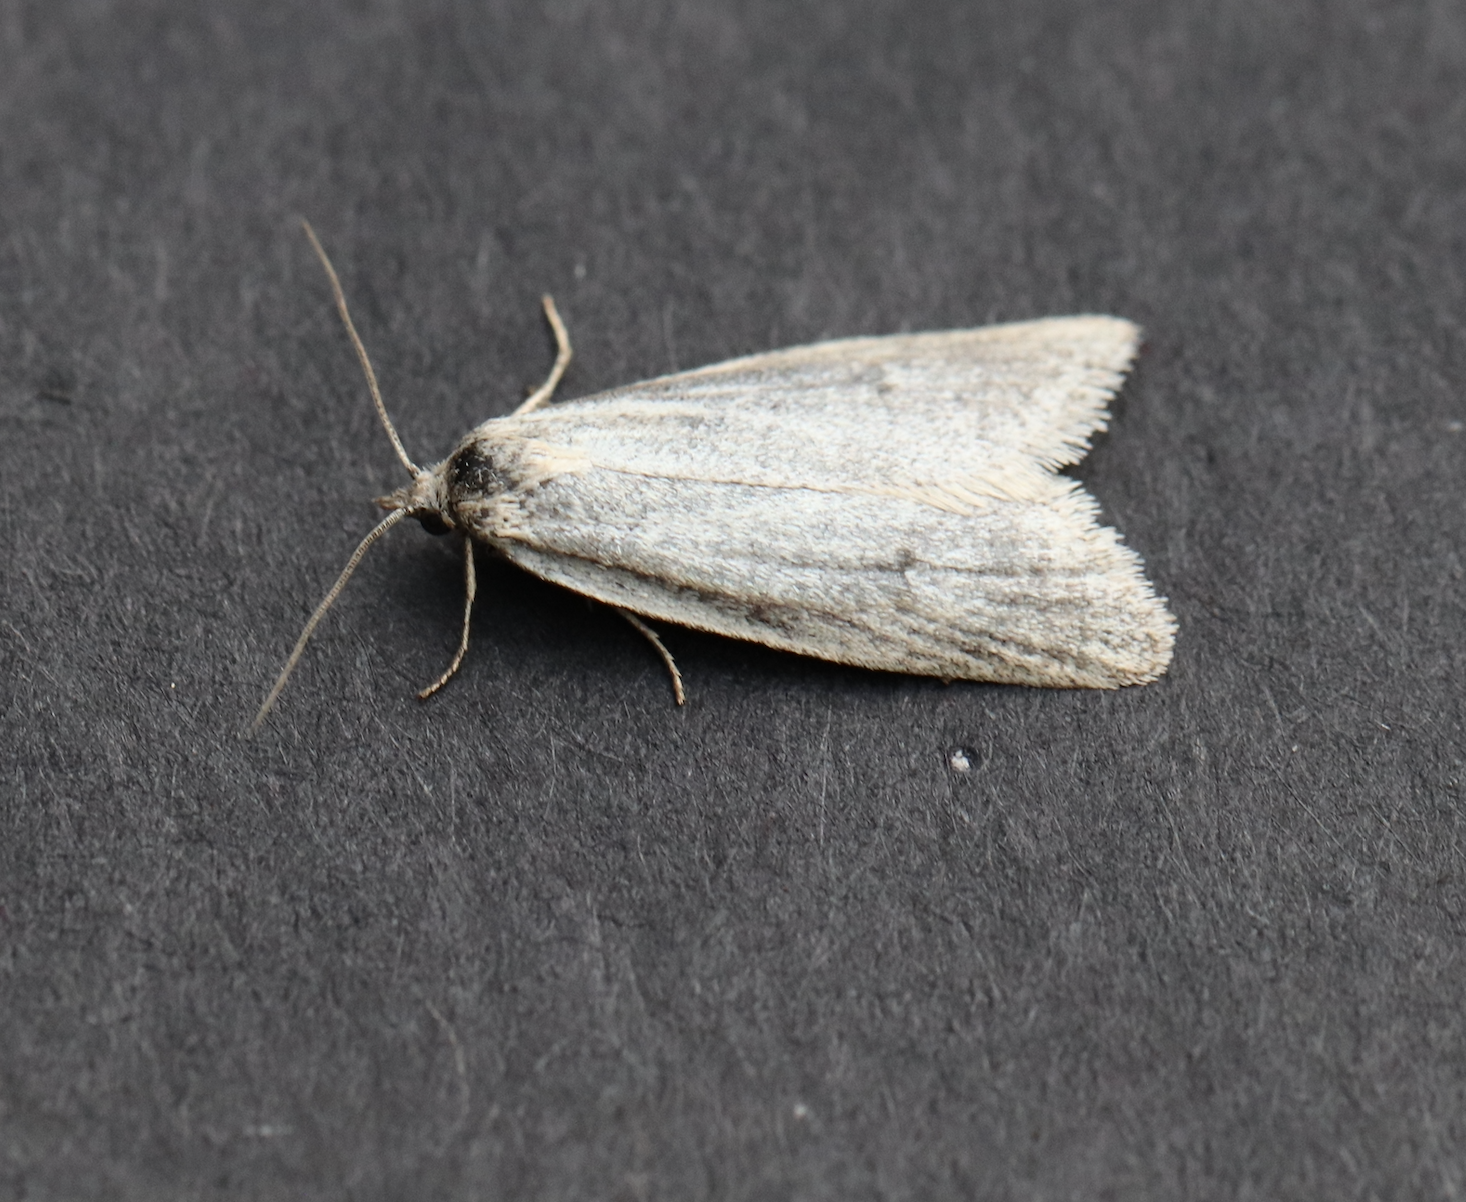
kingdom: Animalia
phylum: Arthropoda
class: Insecta
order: Lepidoptera
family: Tortricidae
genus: Eana
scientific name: Eana argentana
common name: Silver shade
